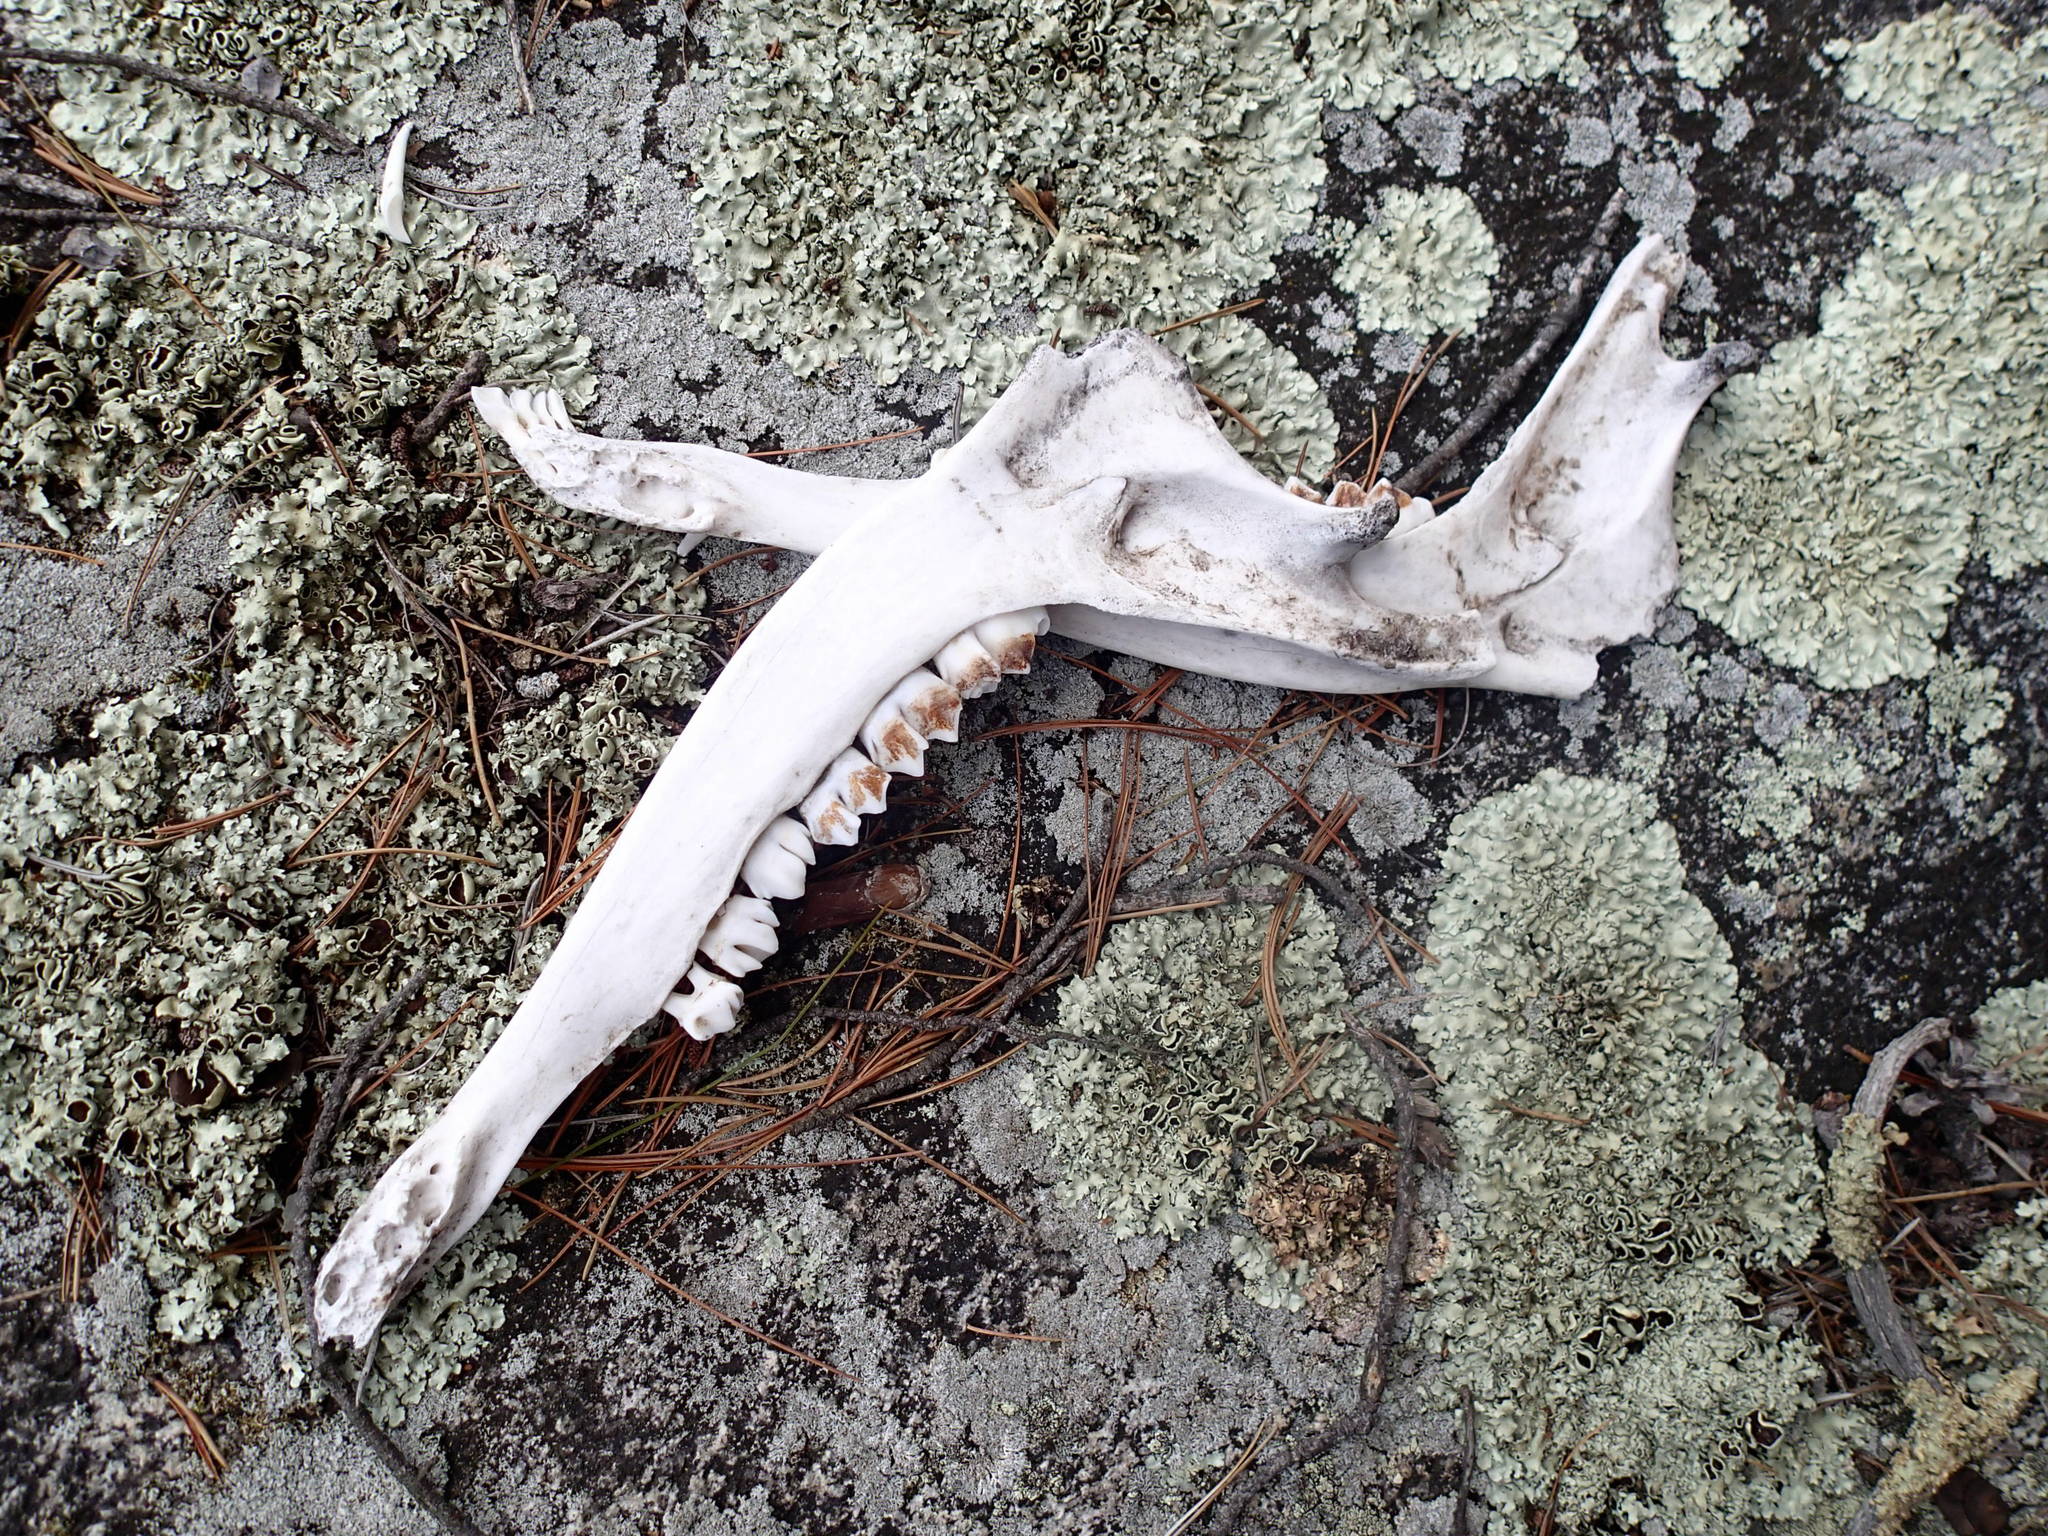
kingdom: Animalia
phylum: Chordata
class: Mammalia
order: Artiodactyla
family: Cervidae
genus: Odocoileus
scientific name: Odocoileus virginianus
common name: White-tailed deer
